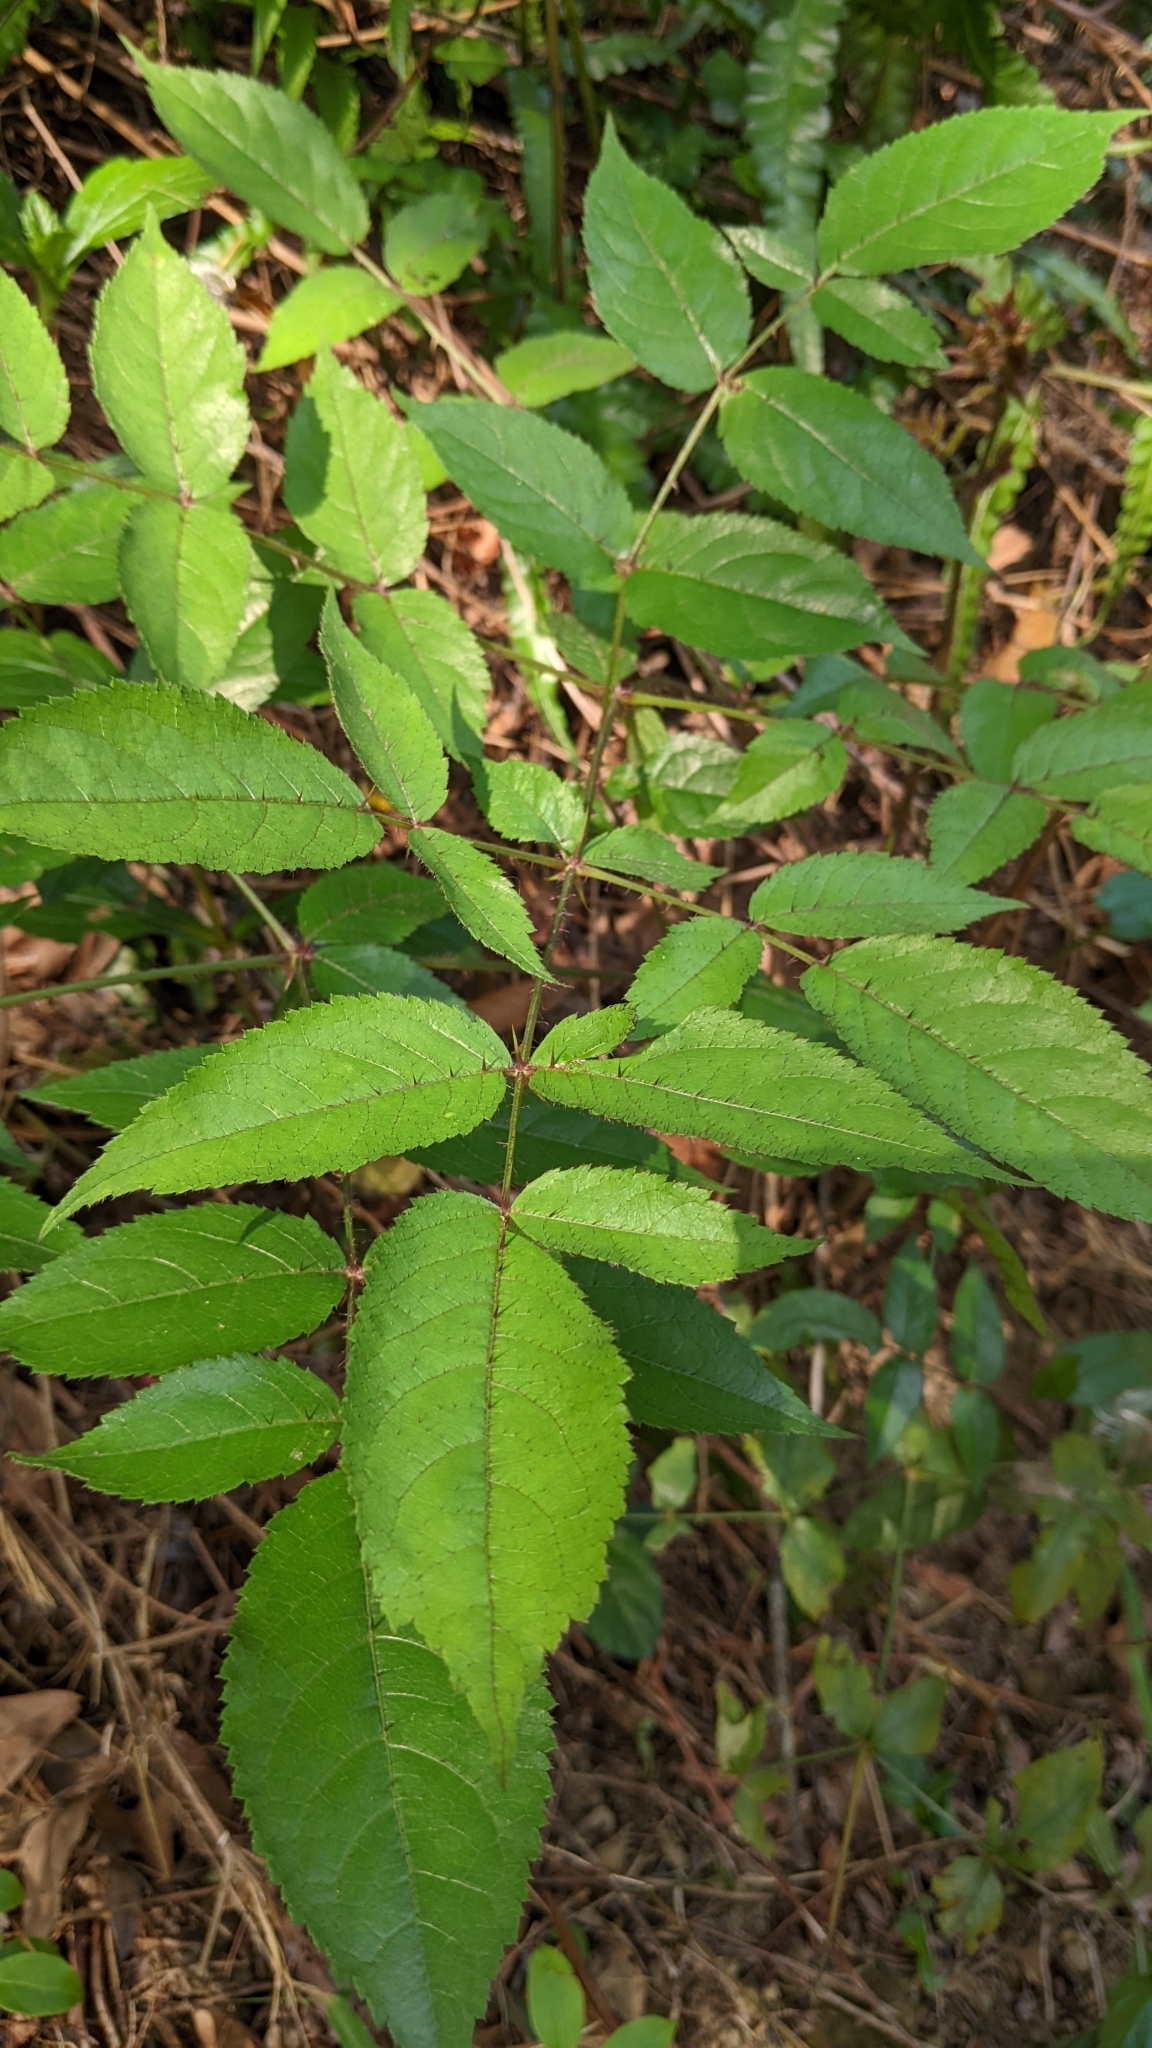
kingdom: Plantae
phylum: Tracheophyta
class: Magnoliopsida
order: Apiales
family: Araliaceae
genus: Aralia
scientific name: Aralia armata
